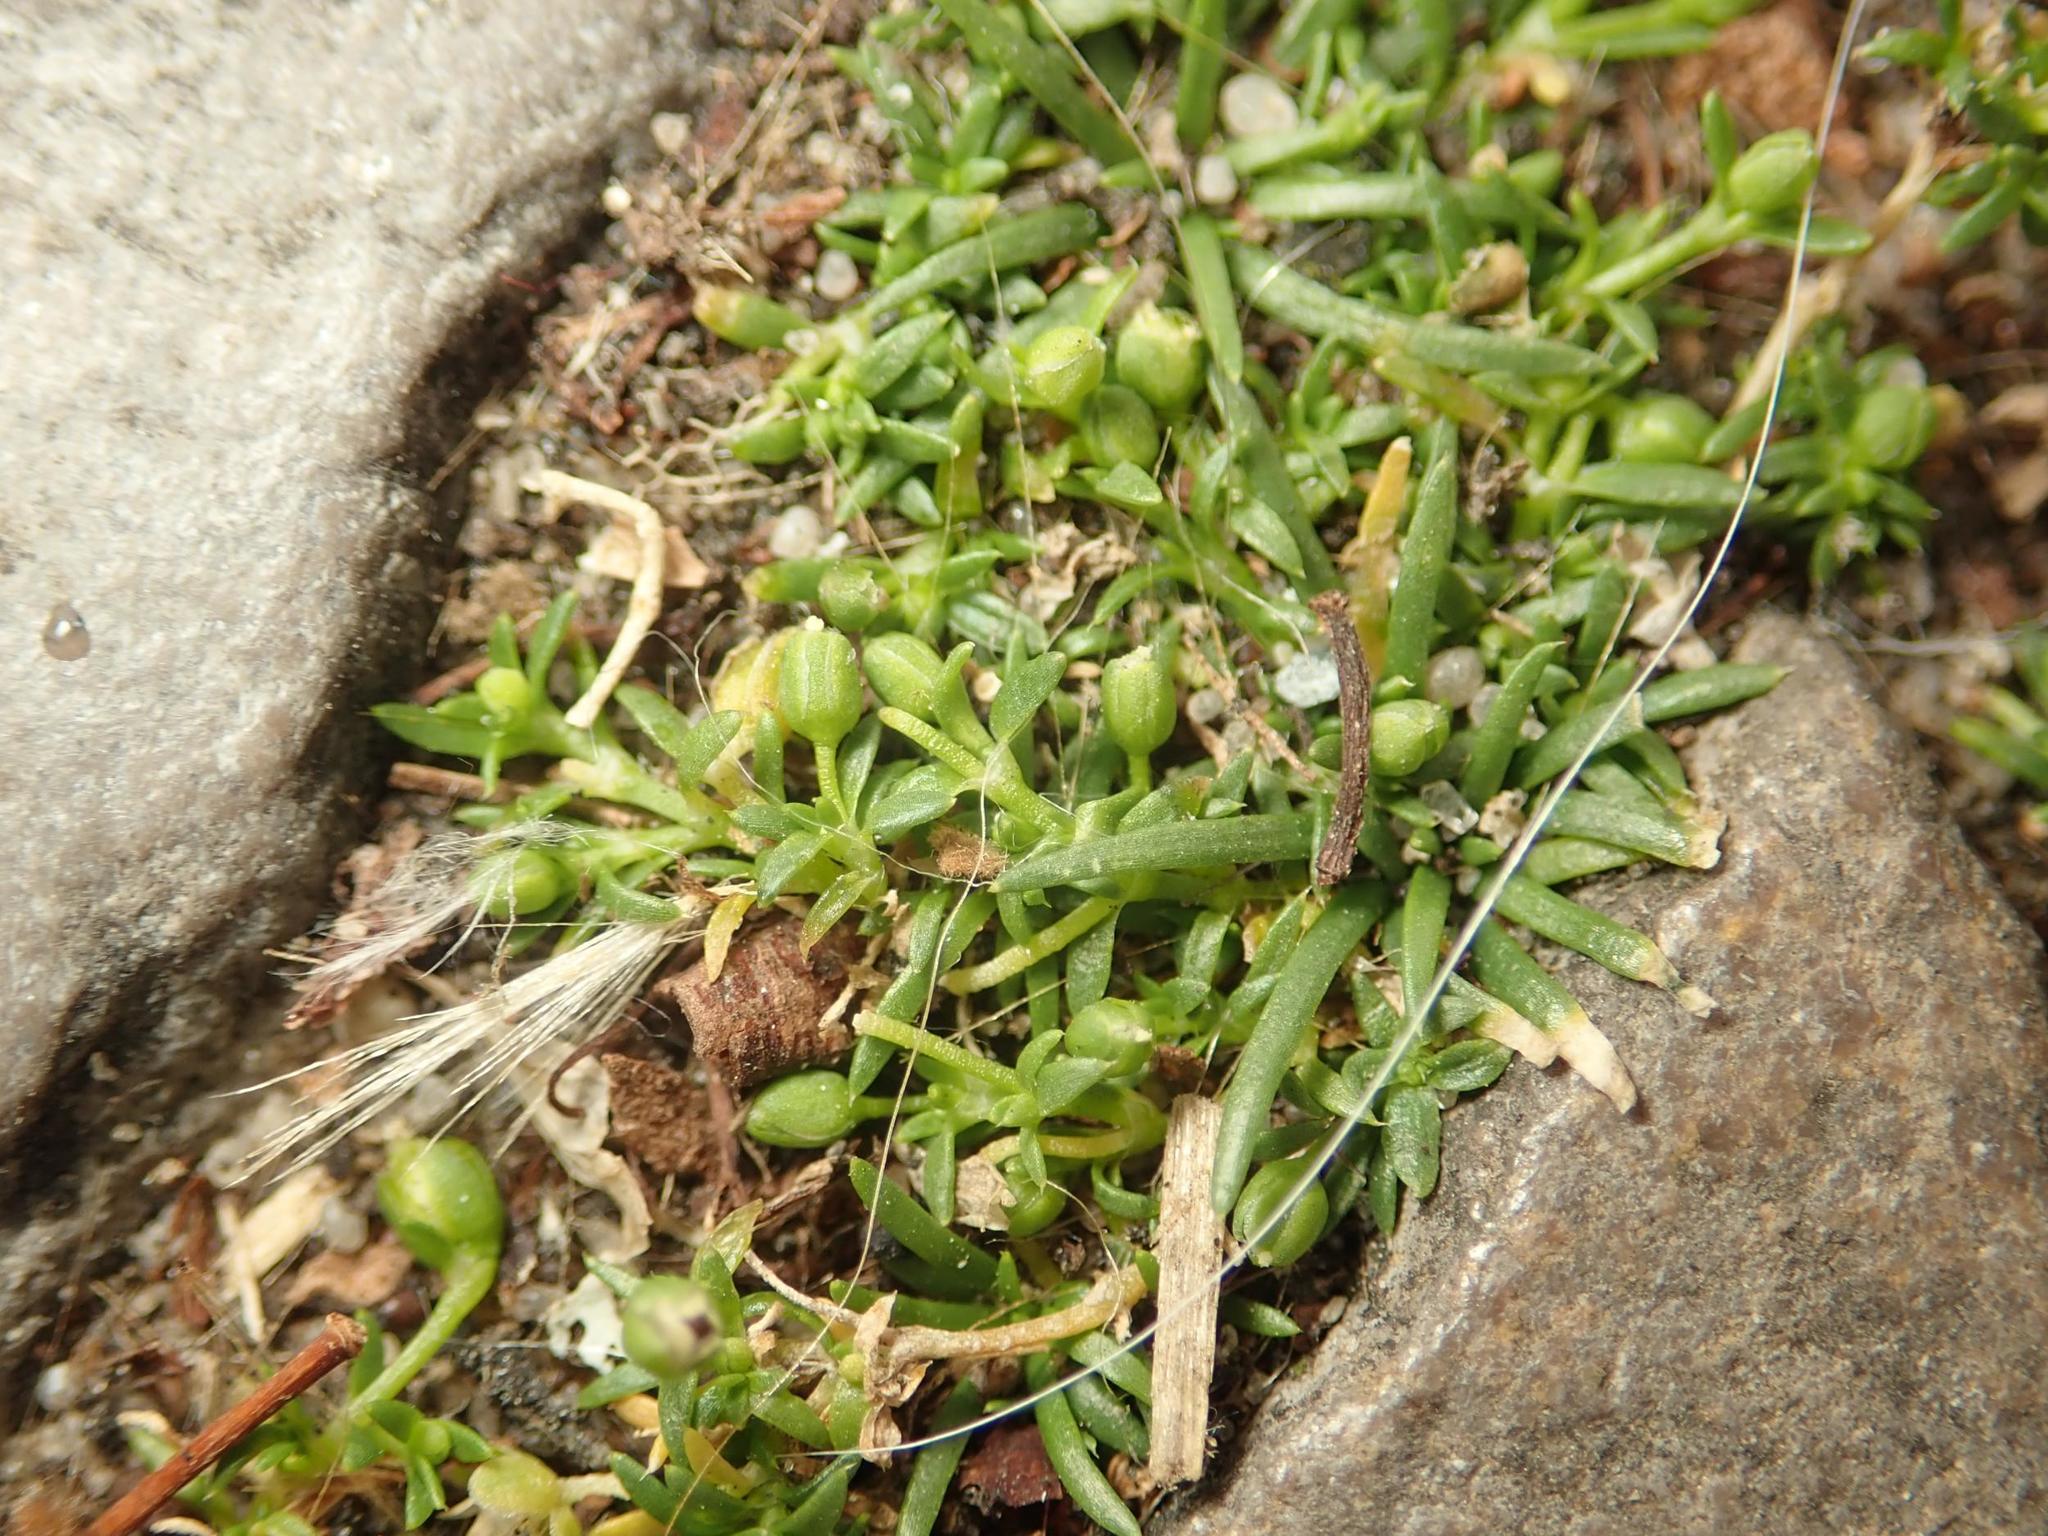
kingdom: Plantae
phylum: Tracheophyta
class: Magnoliopsida
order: Caryophyllales
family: Caryophyllaceae
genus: Sagina
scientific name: Sagina procumbens
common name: Procumbent pearlwort
